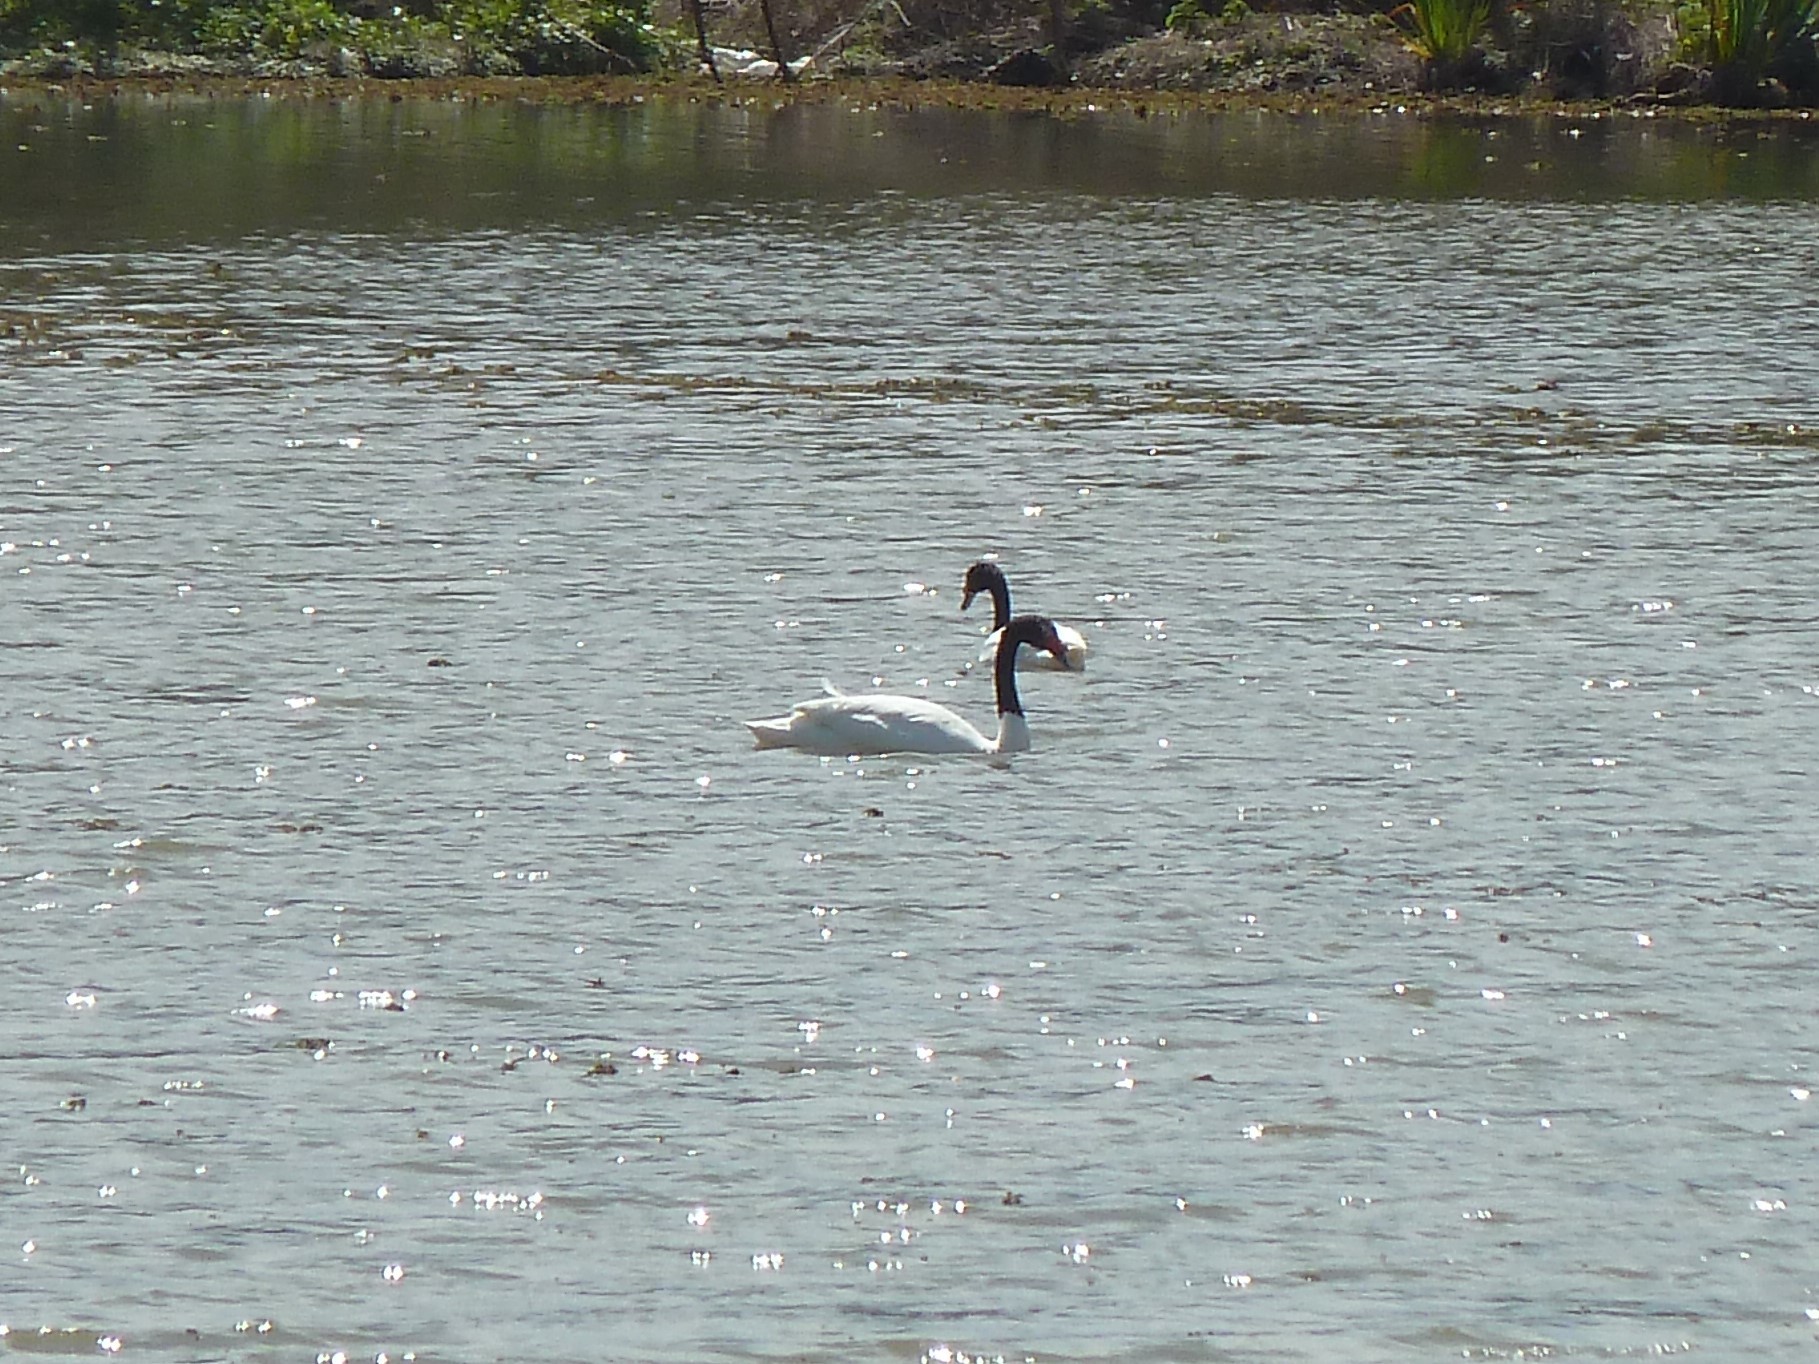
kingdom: Animalia
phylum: Chordata
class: Aves
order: Anseriformes
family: Anatidae
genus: Cygnus
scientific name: Cygnus melancoryphus
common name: Black-necked swan
